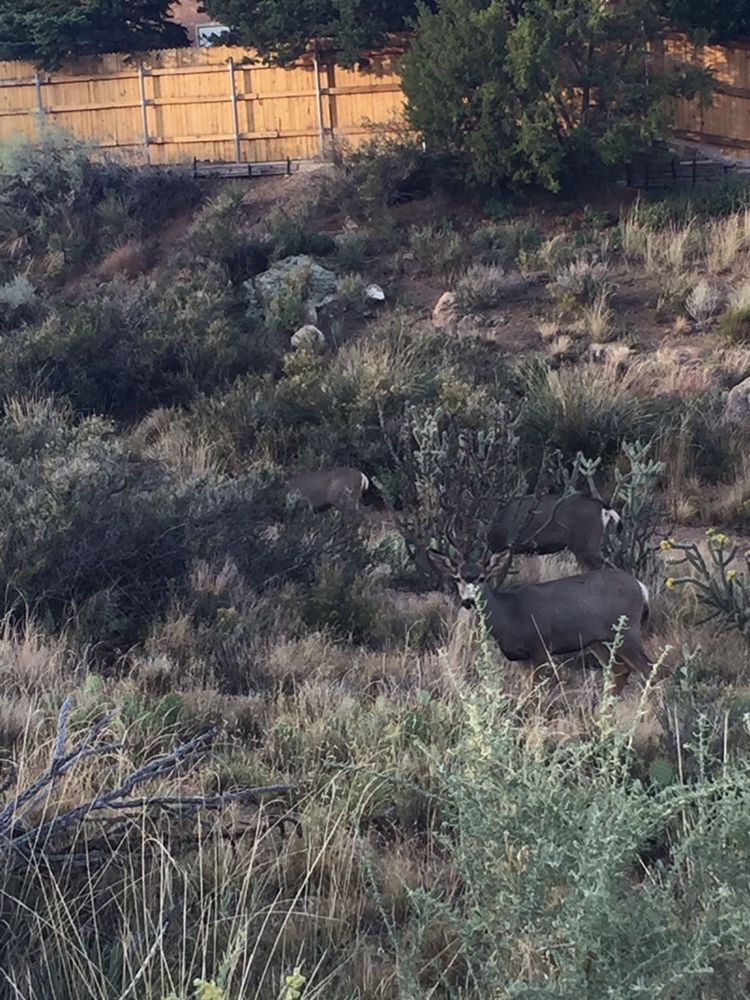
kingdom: Animalia
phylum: Chordata
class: Mammalia
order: Artiodactyla
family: Cervidae
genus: Odocoileus
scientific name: Odocoileus hemionus
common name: Mule deer
